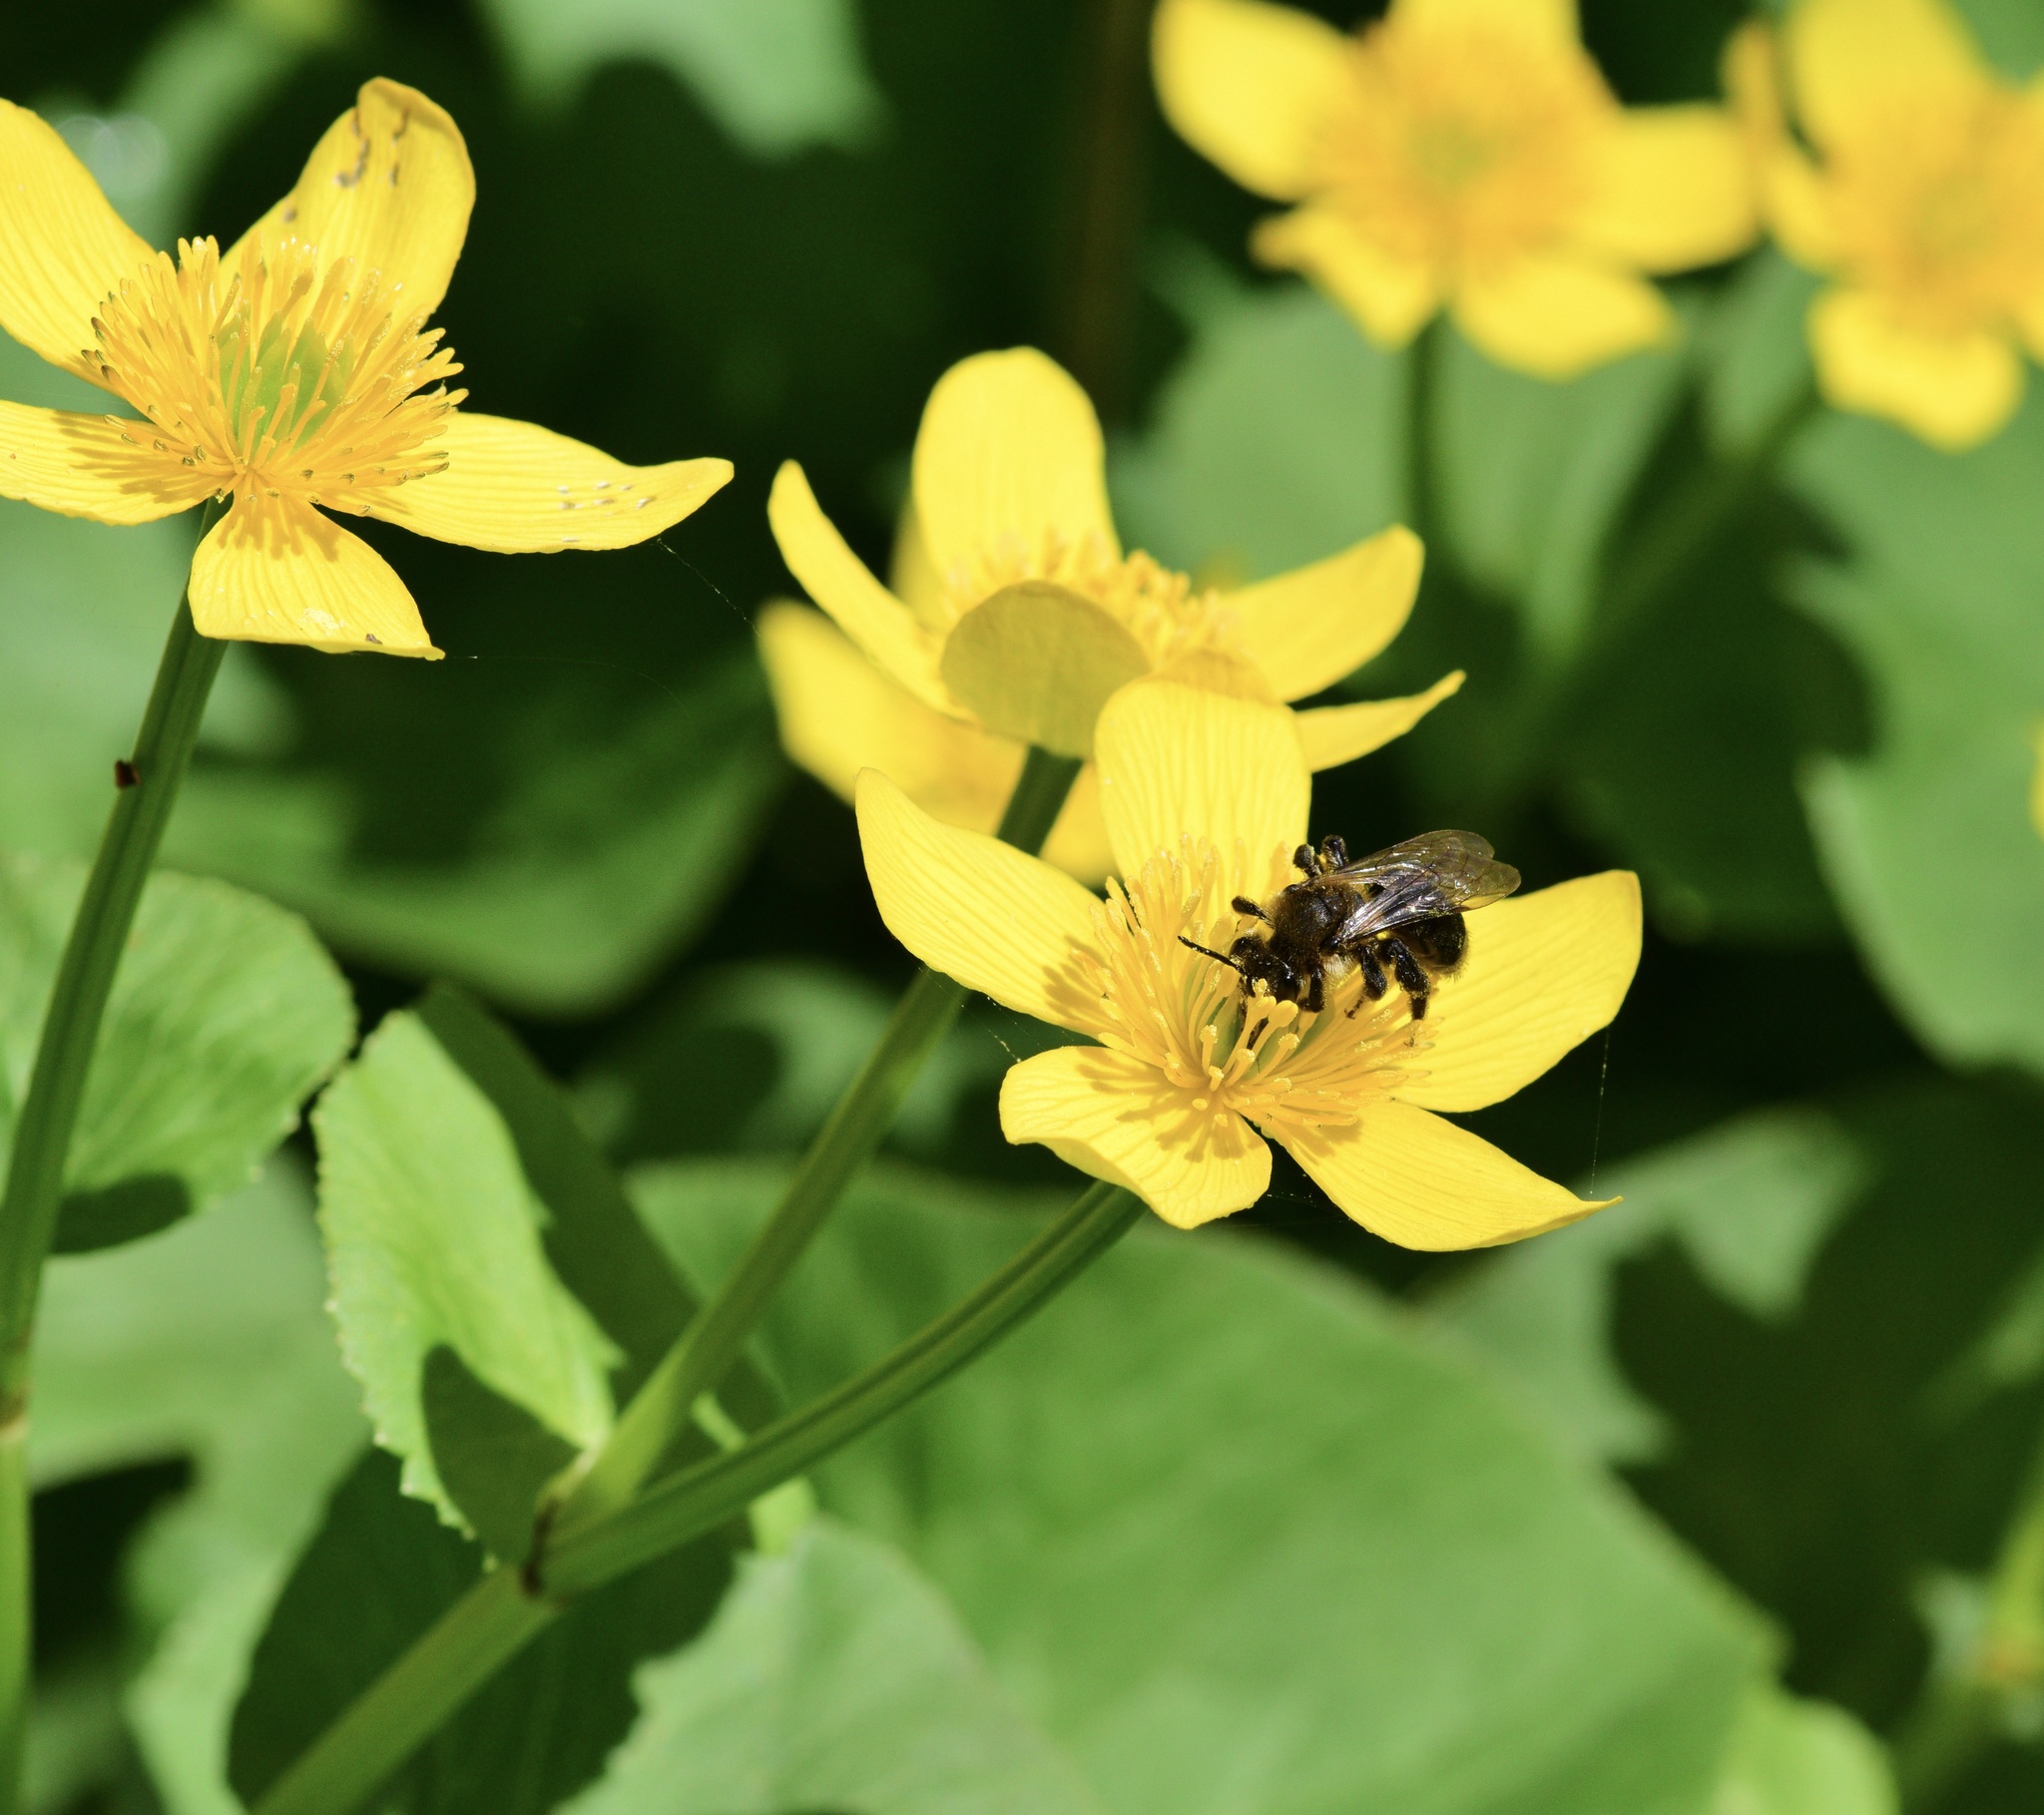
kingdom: Animalia
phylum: Arthropoda
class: Insecta
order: Hymenoptera
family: Andrenidae
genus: Andrena
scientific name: Andrena vicina
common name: Neighborly mining bee
